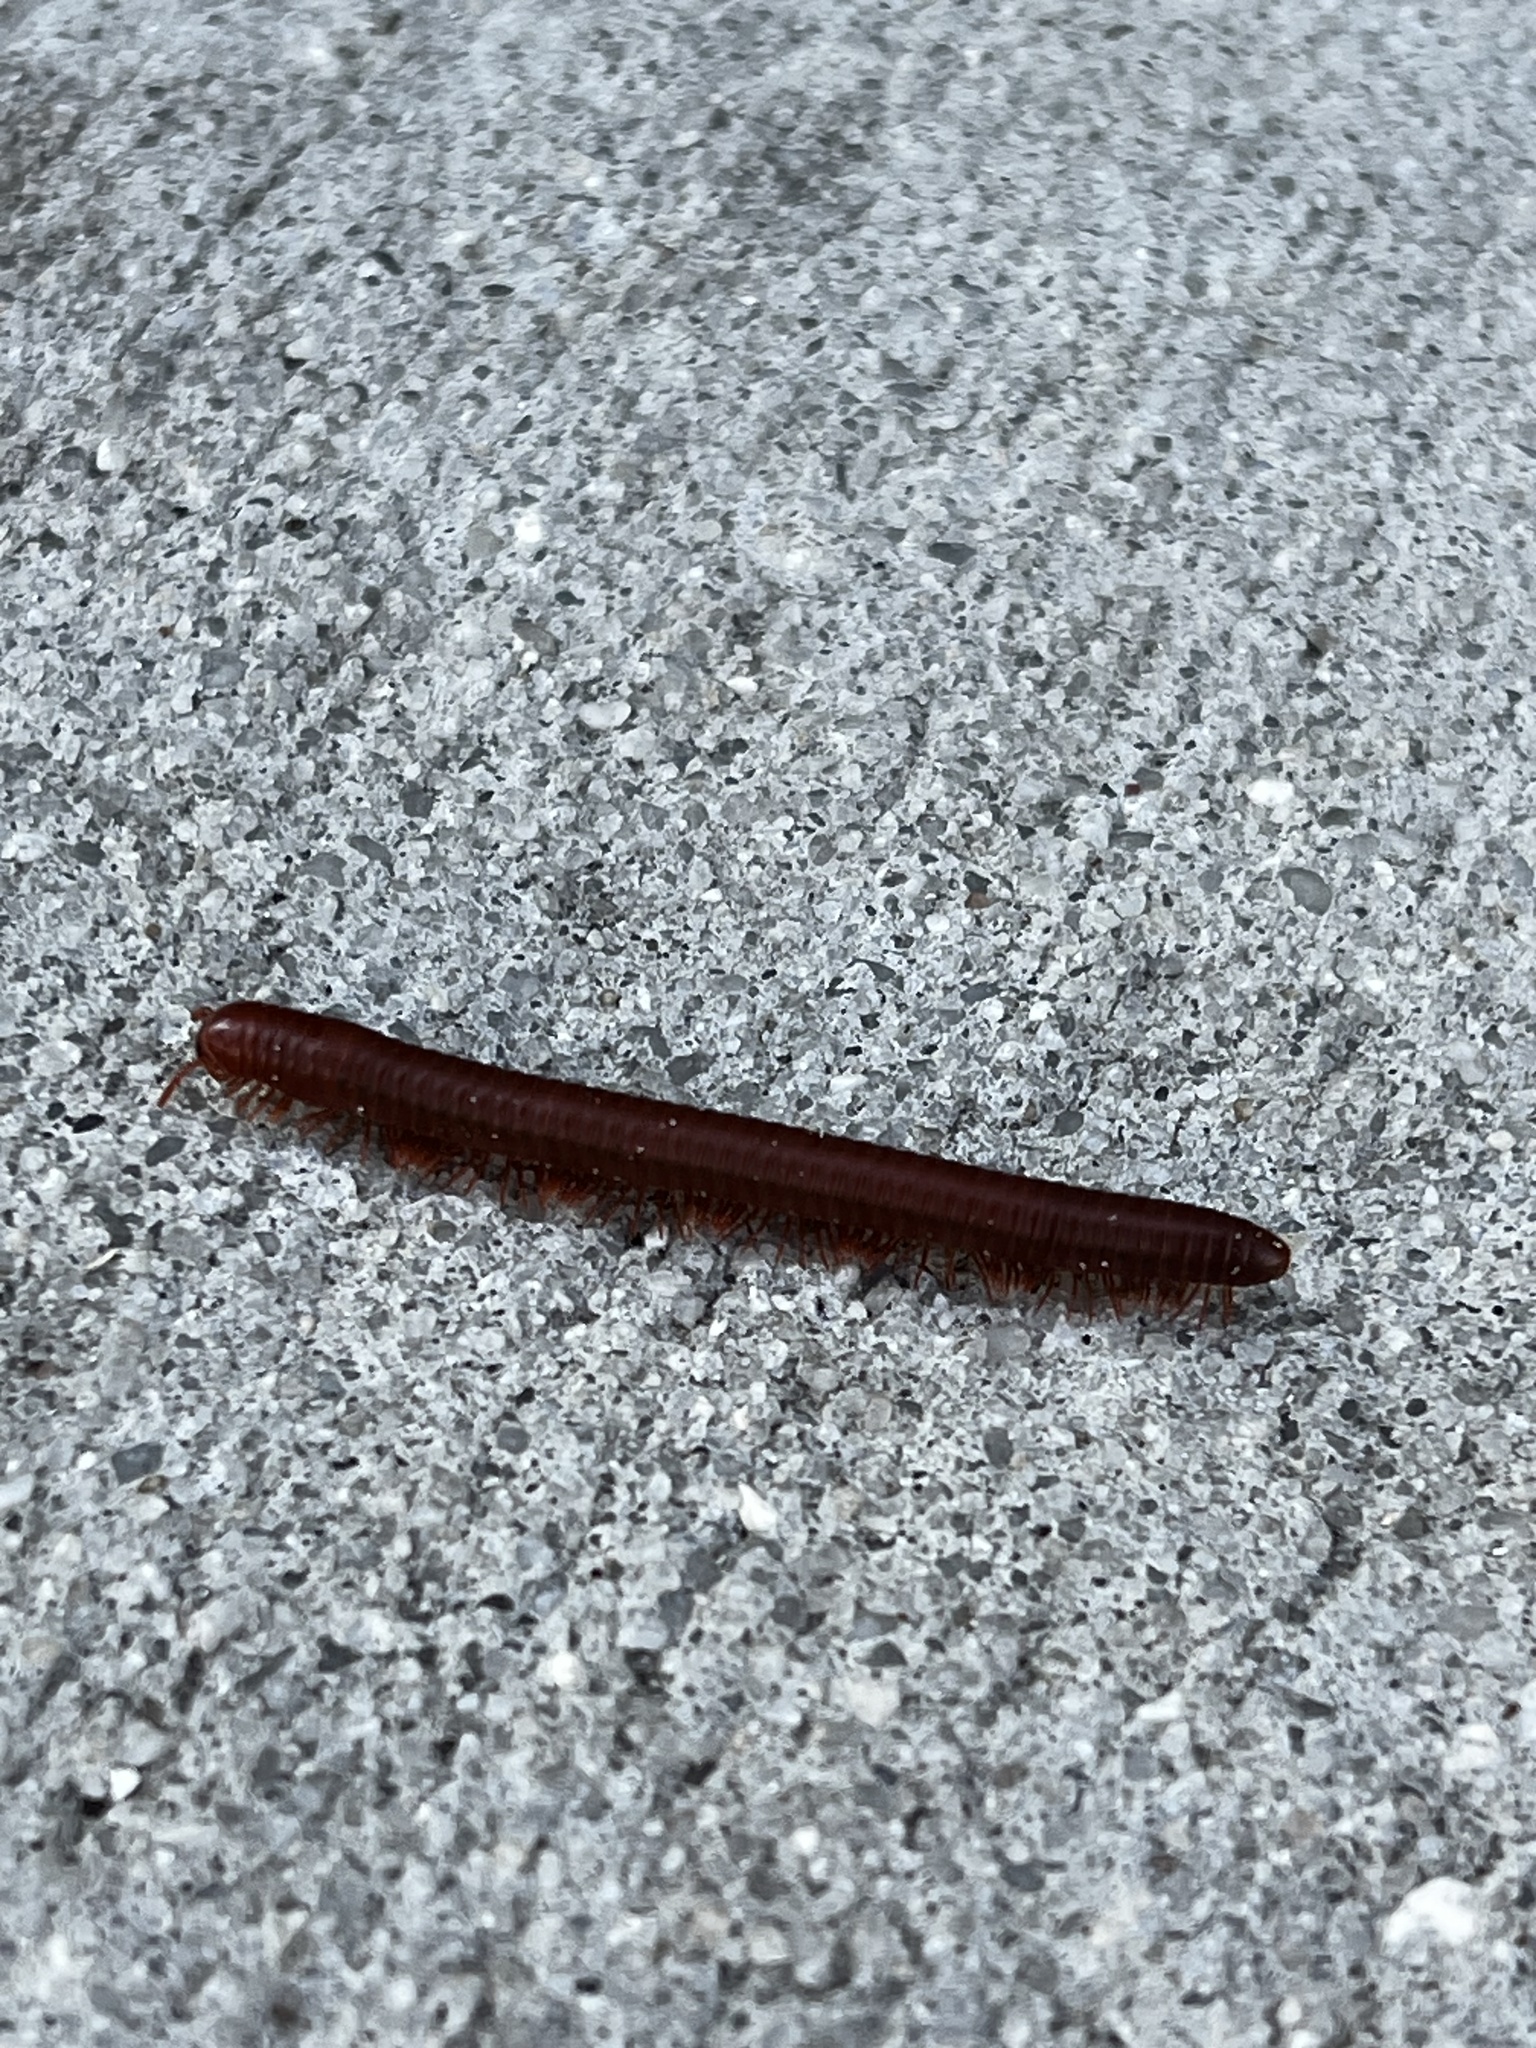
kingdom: Animalia
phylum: Arthropoda
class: Diplopoda
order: Spirobolida
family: Pachybolidae
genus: Trigoniulus
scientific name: Trigoniulus corallinus
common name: Millipede
